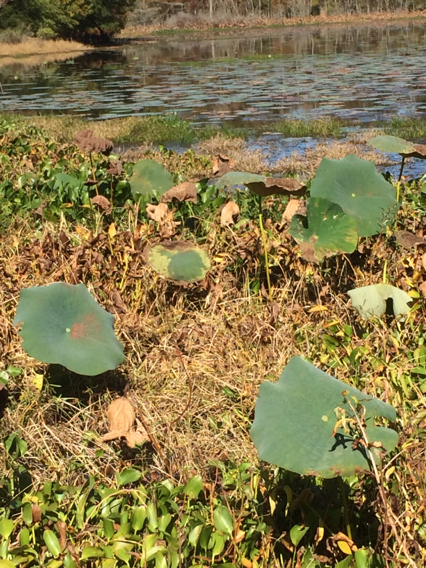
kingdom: Plantae
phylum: Tracheophyta
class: Magnoliopsida
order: Proteales
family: Nelumbonaceae
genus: Nelumbo
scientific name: Nelumbo lutea
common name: American lotus
